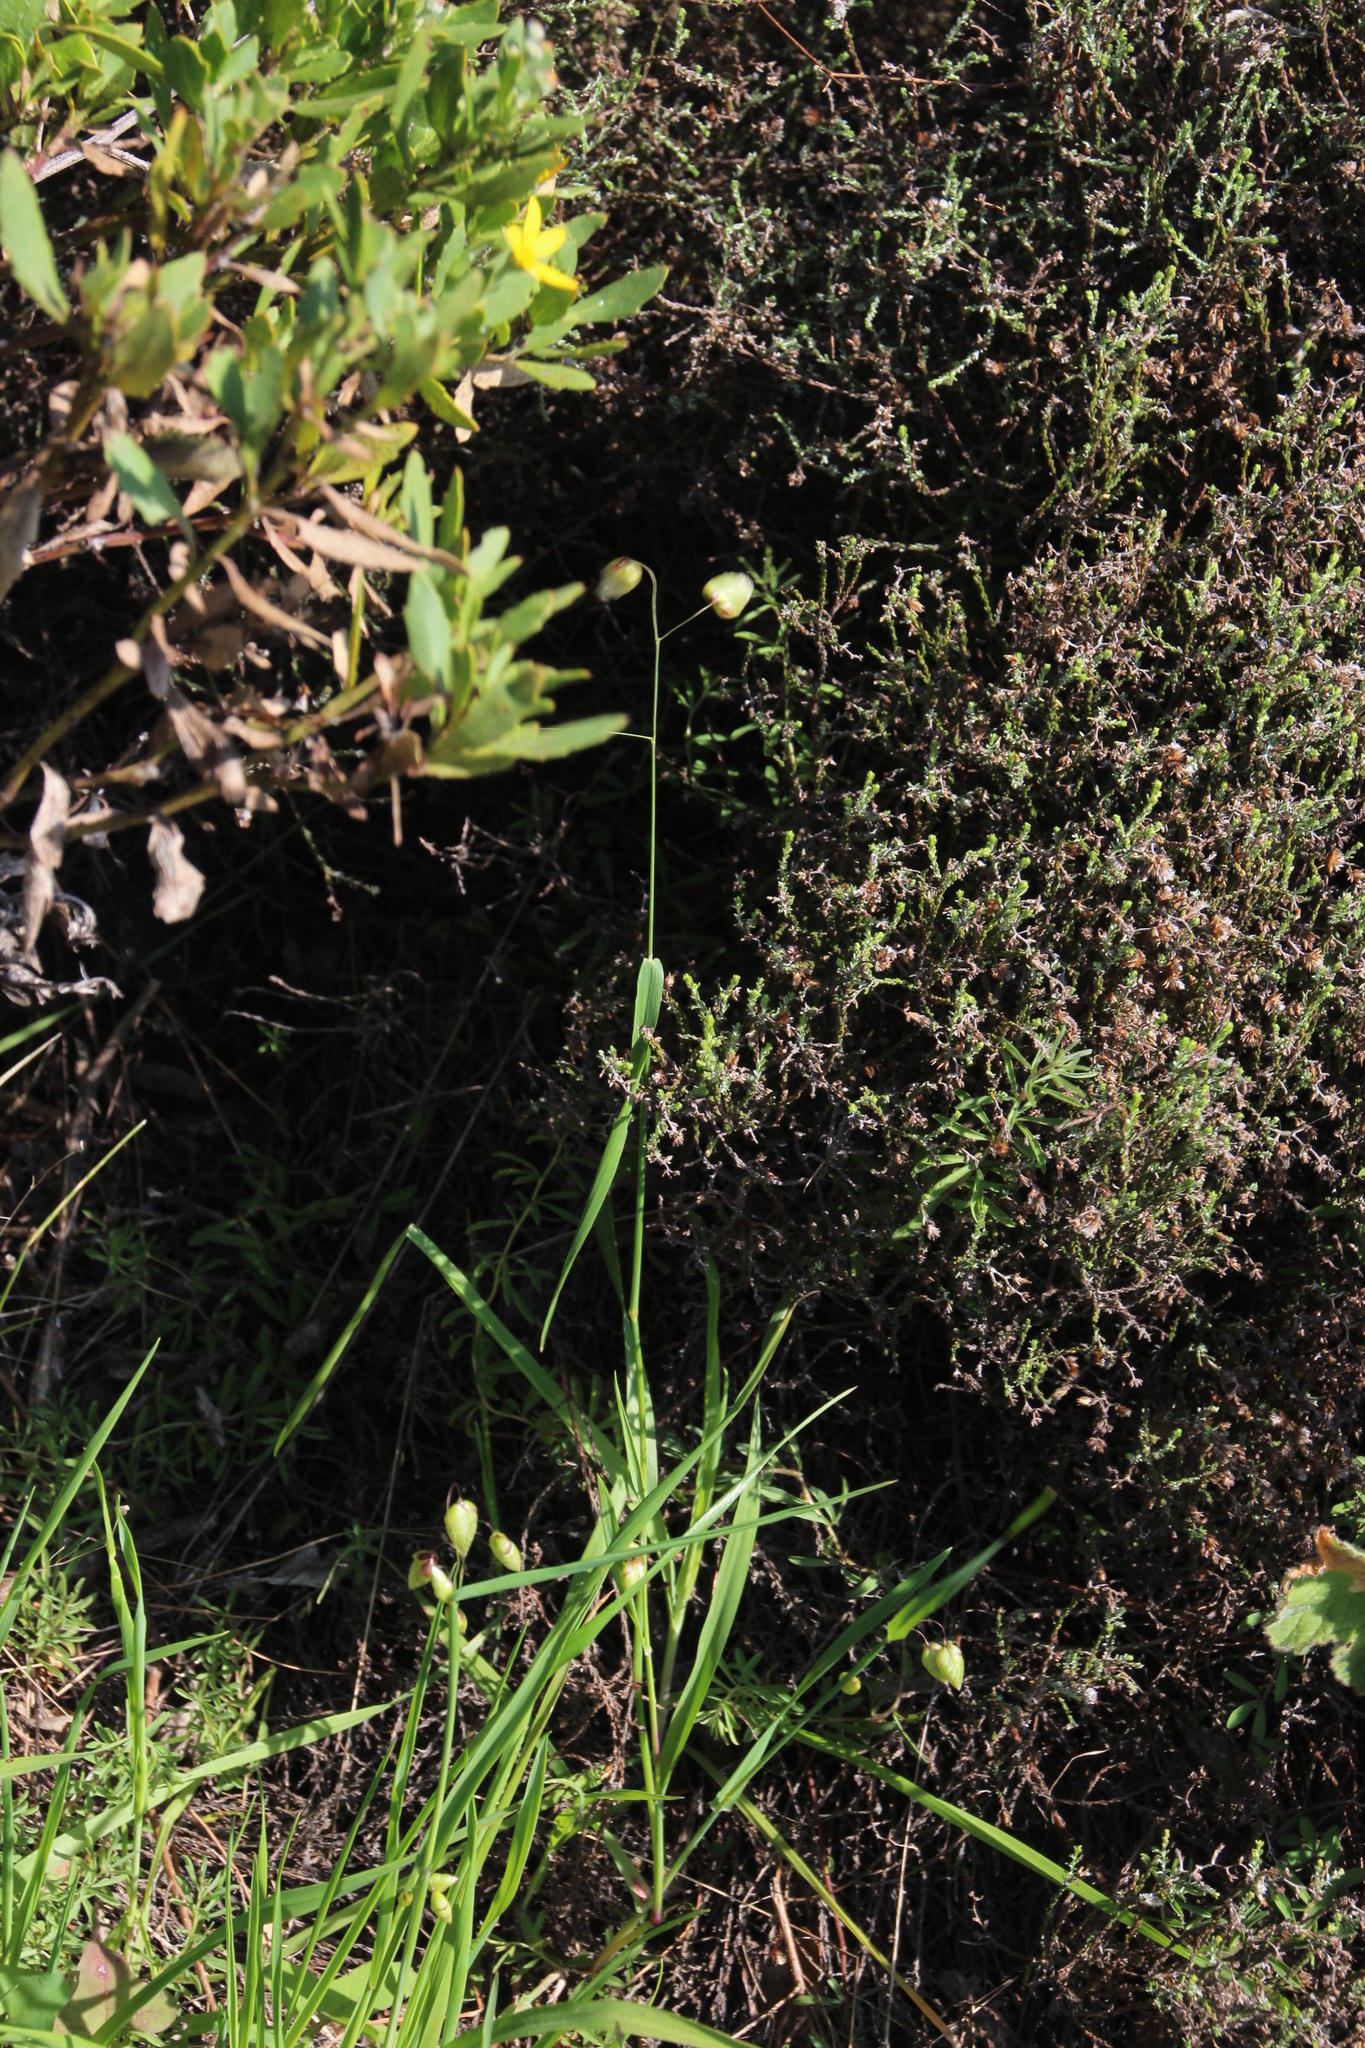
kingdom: Plantae
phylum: Tracheophyta
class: Liliopsida
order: Poales
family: Poaceae
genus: Briza
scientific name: Briza maxima
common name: Big quakinggrass
